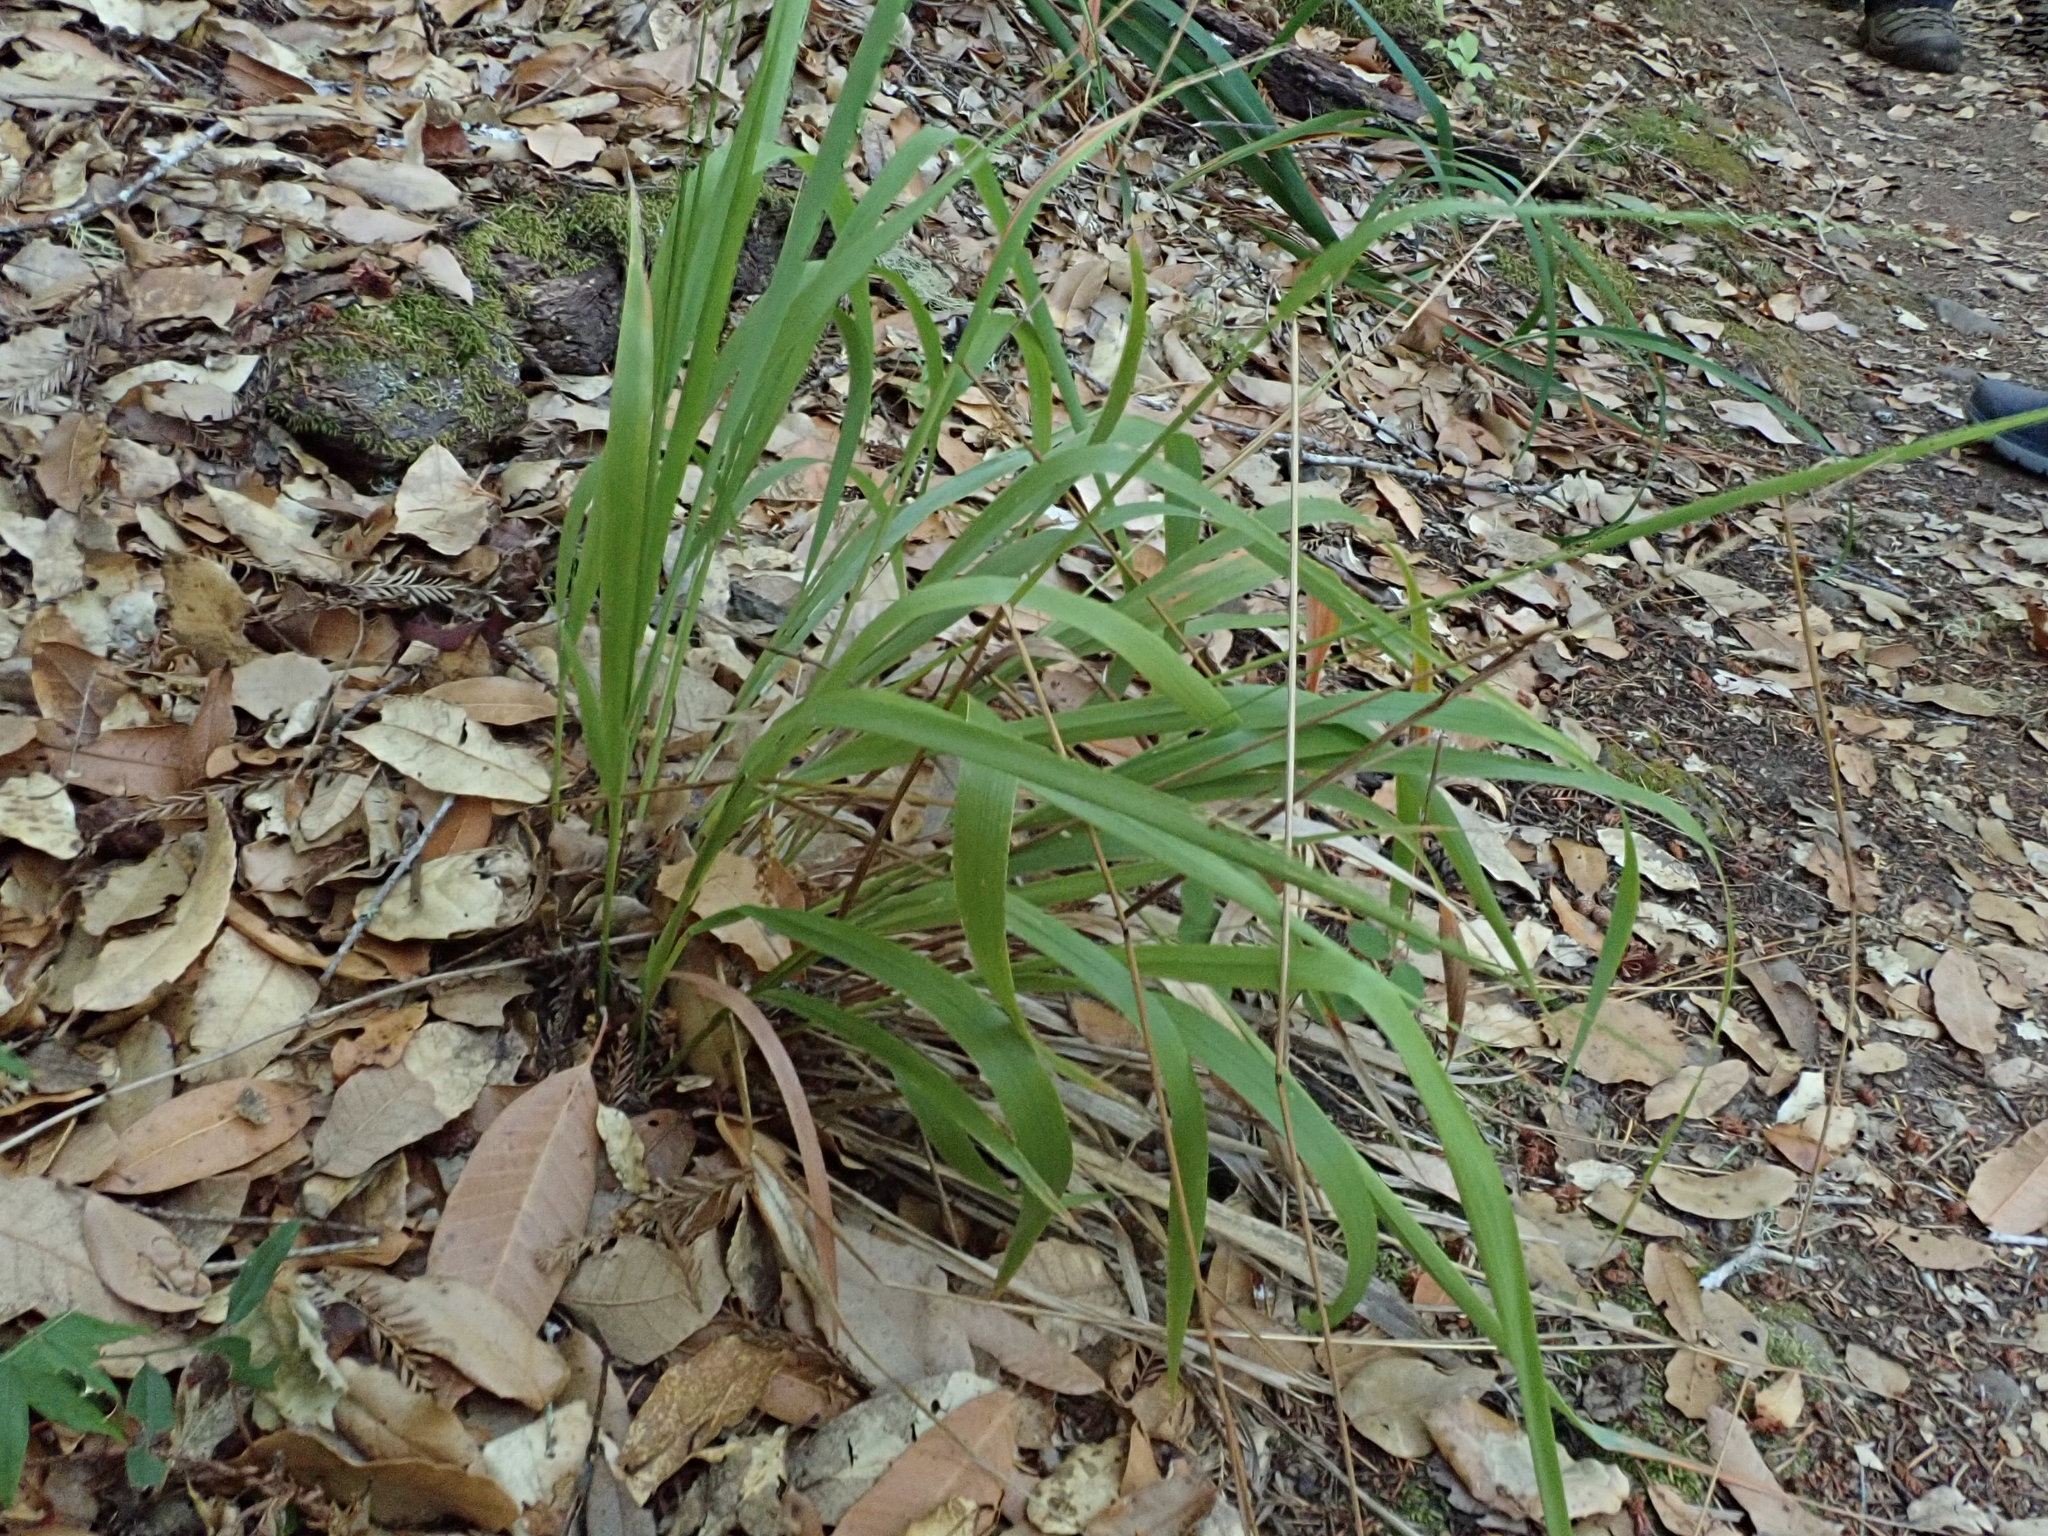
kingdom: Plantae
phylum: Tracheophyta
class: Liliopsida
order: Poales
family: Poaceae
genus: Anthoxanthum
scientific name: Anthoxanthum occidentale
